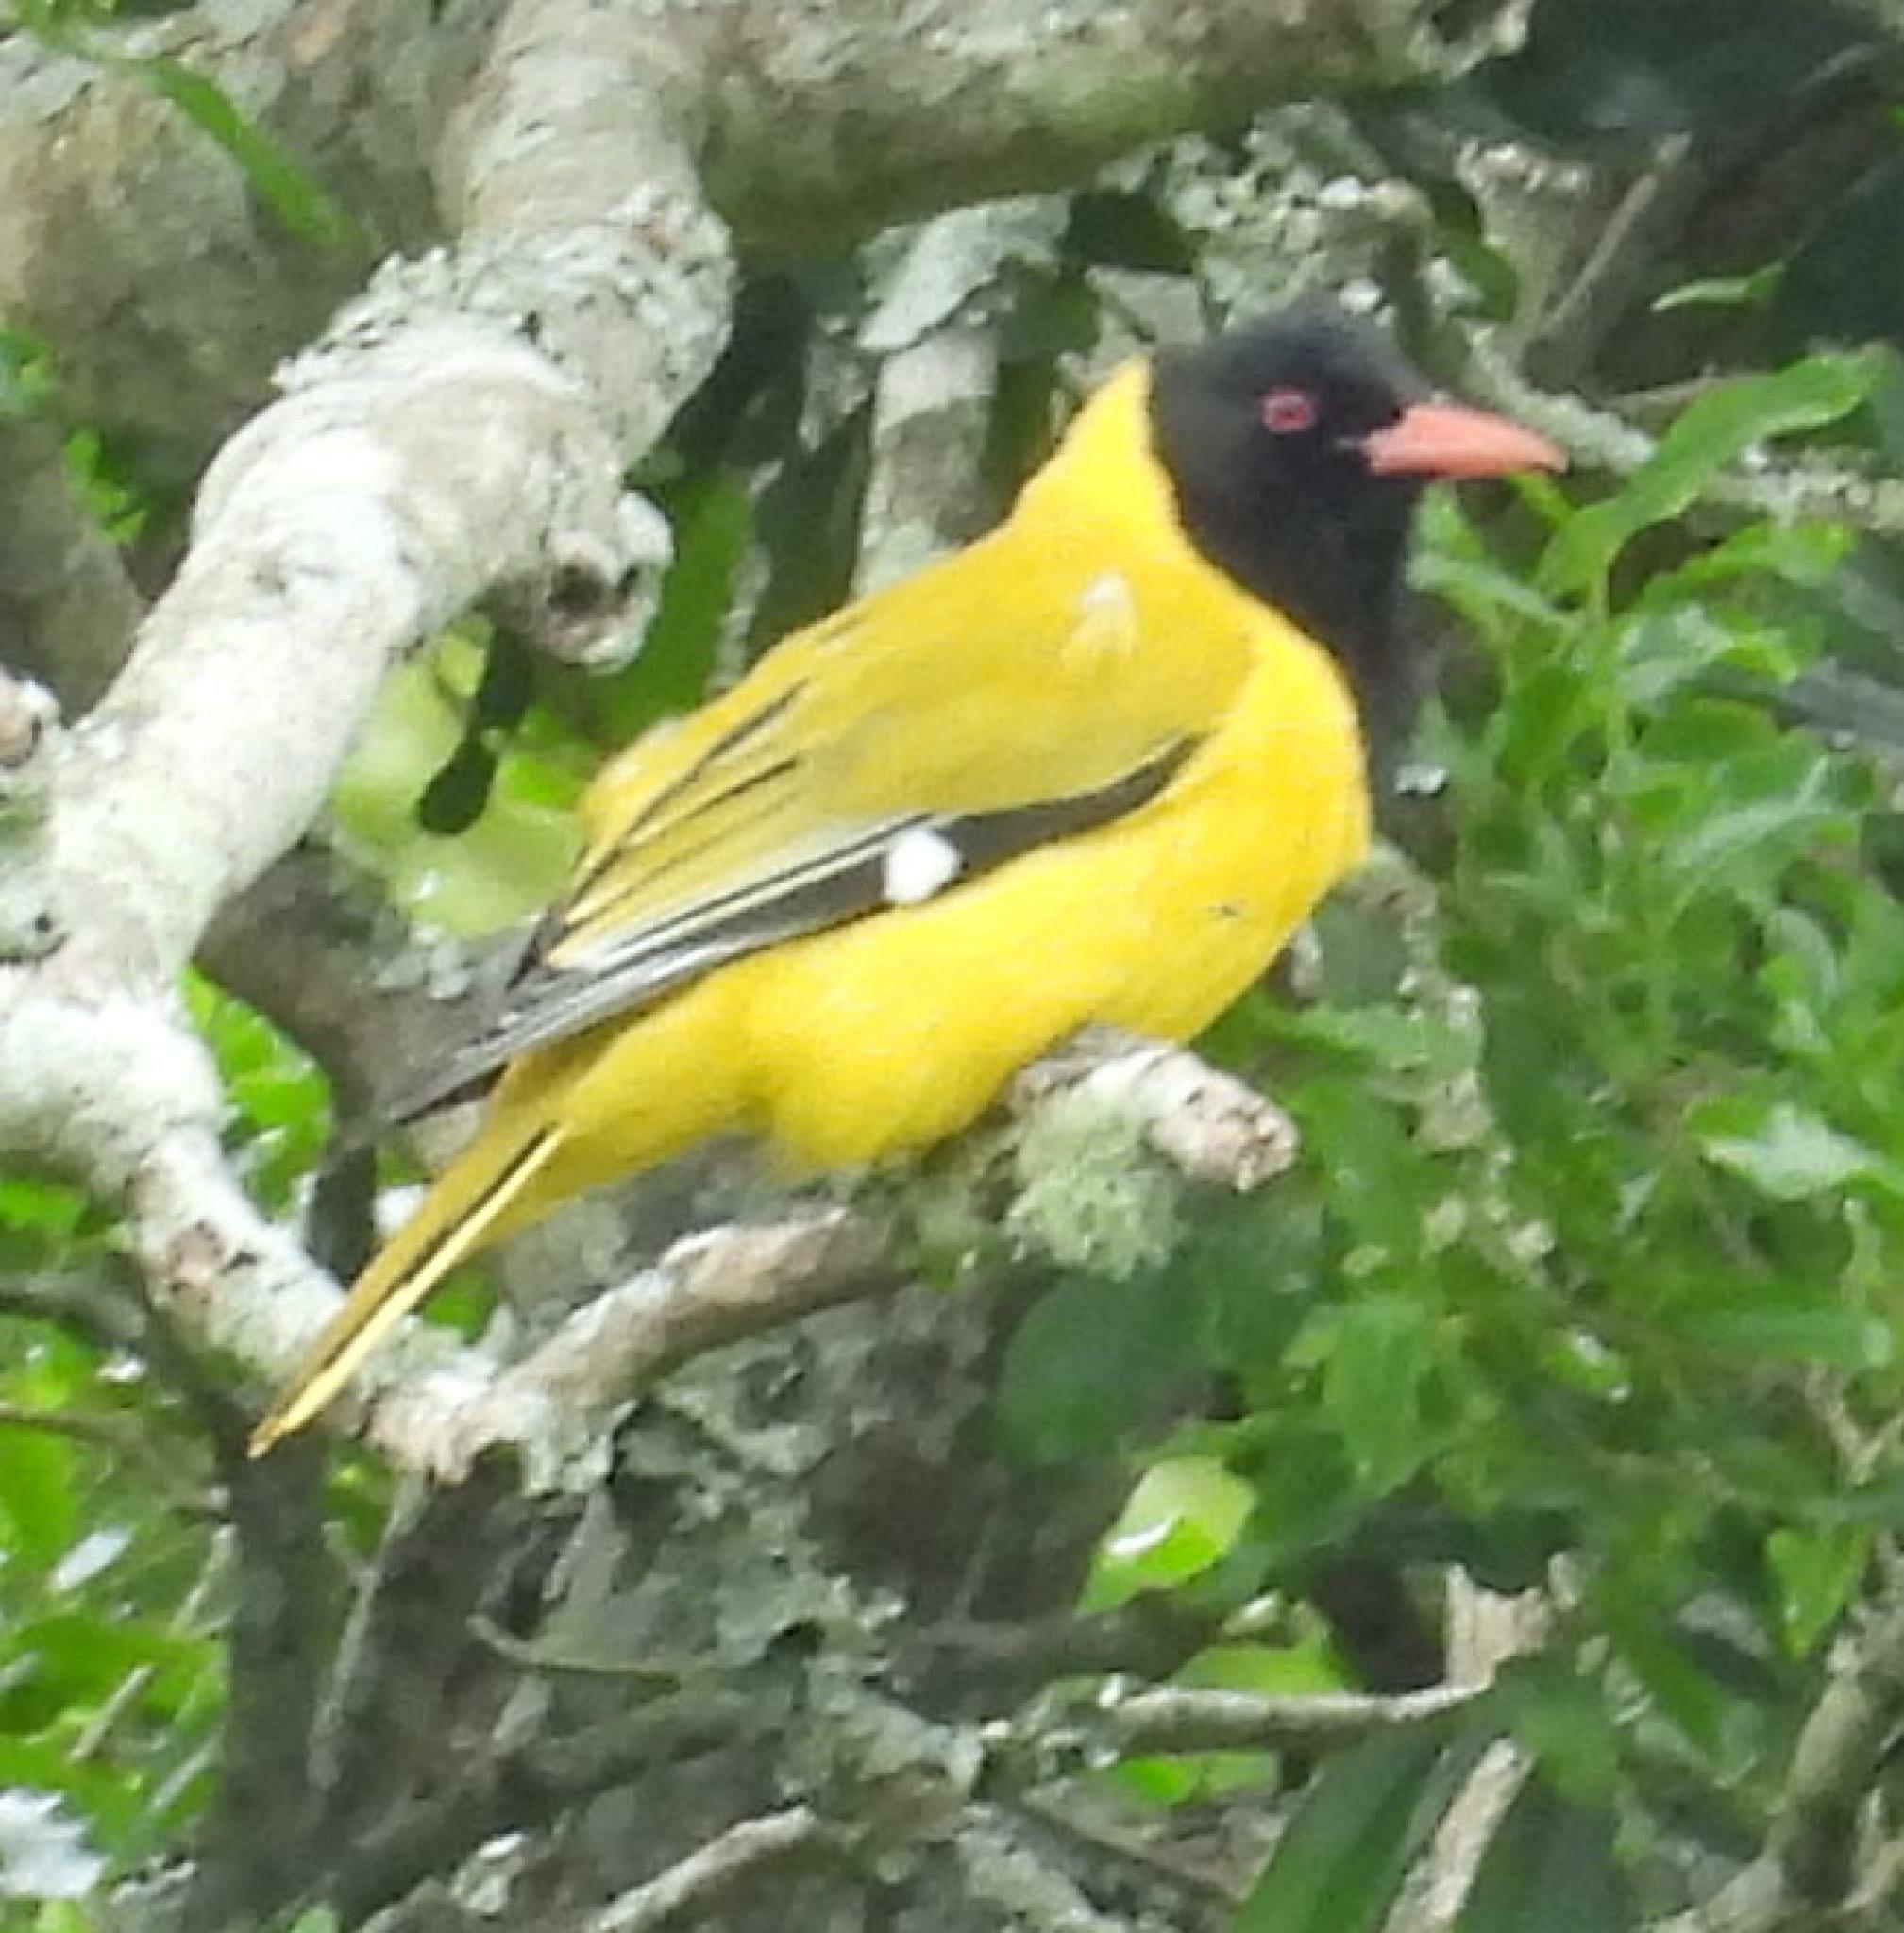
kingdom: Animalia
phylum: Chordata
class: Aves
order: Passeriformes
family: Oriolidae
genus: Oriolus
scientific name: Oriolus larvatus
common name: Black-headed oriole
